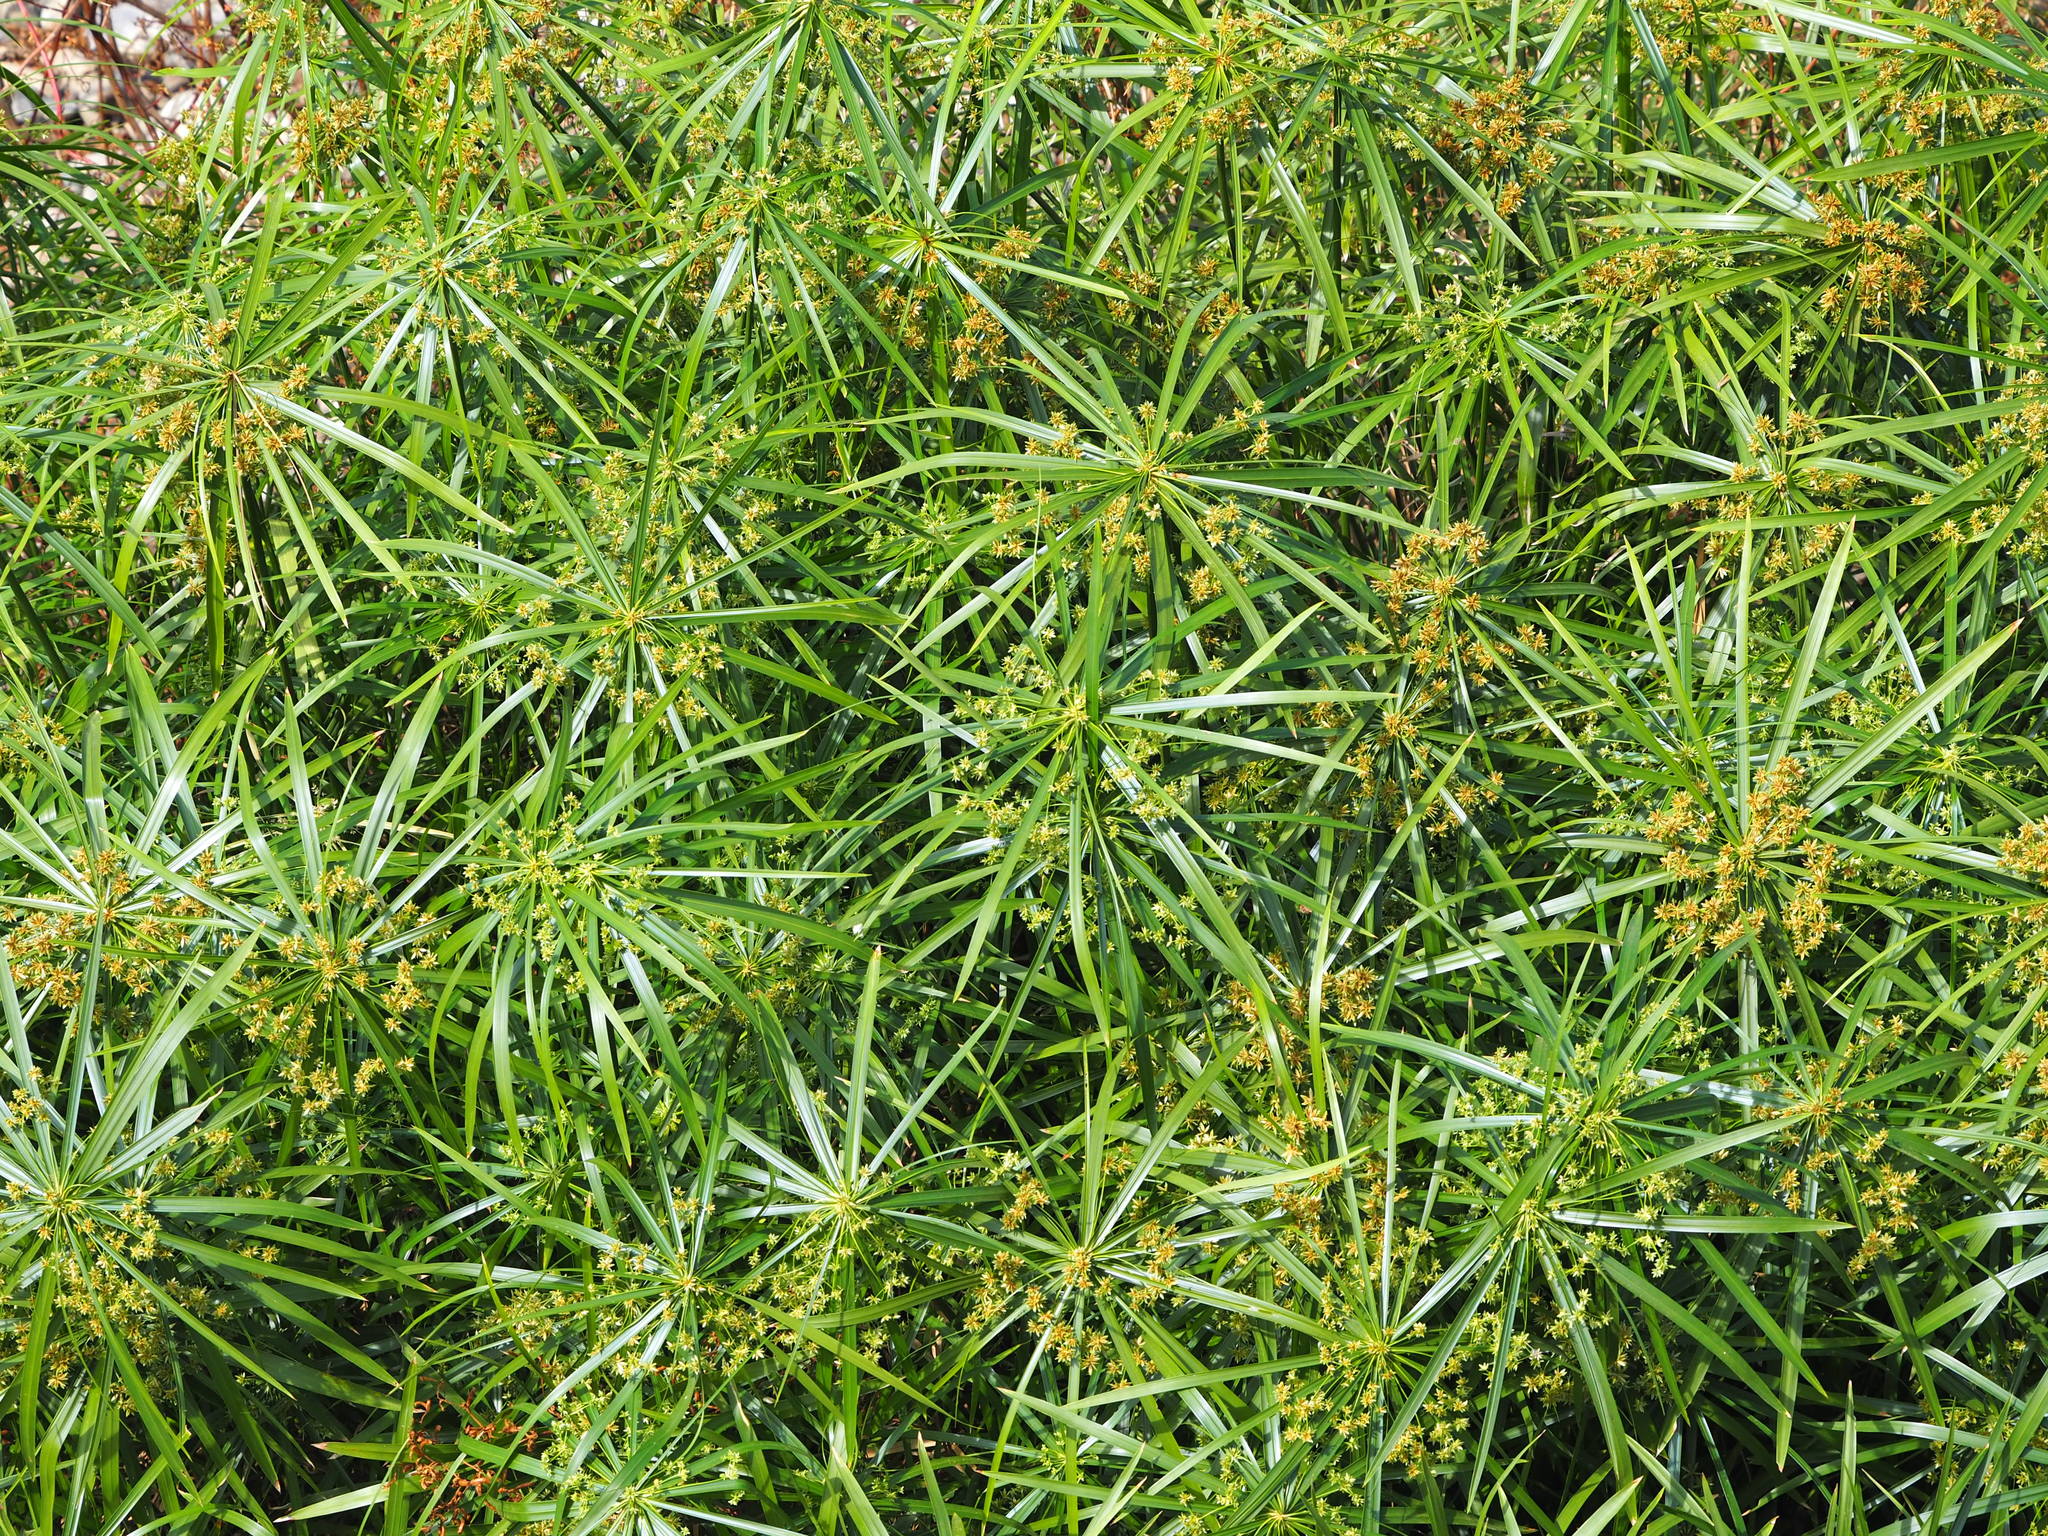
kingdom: Plantae
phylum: Tracheophyta
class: Liliopsida
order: Poales
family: Cyperaceae
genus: Cyperus
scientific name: Cyperus alternifolius
